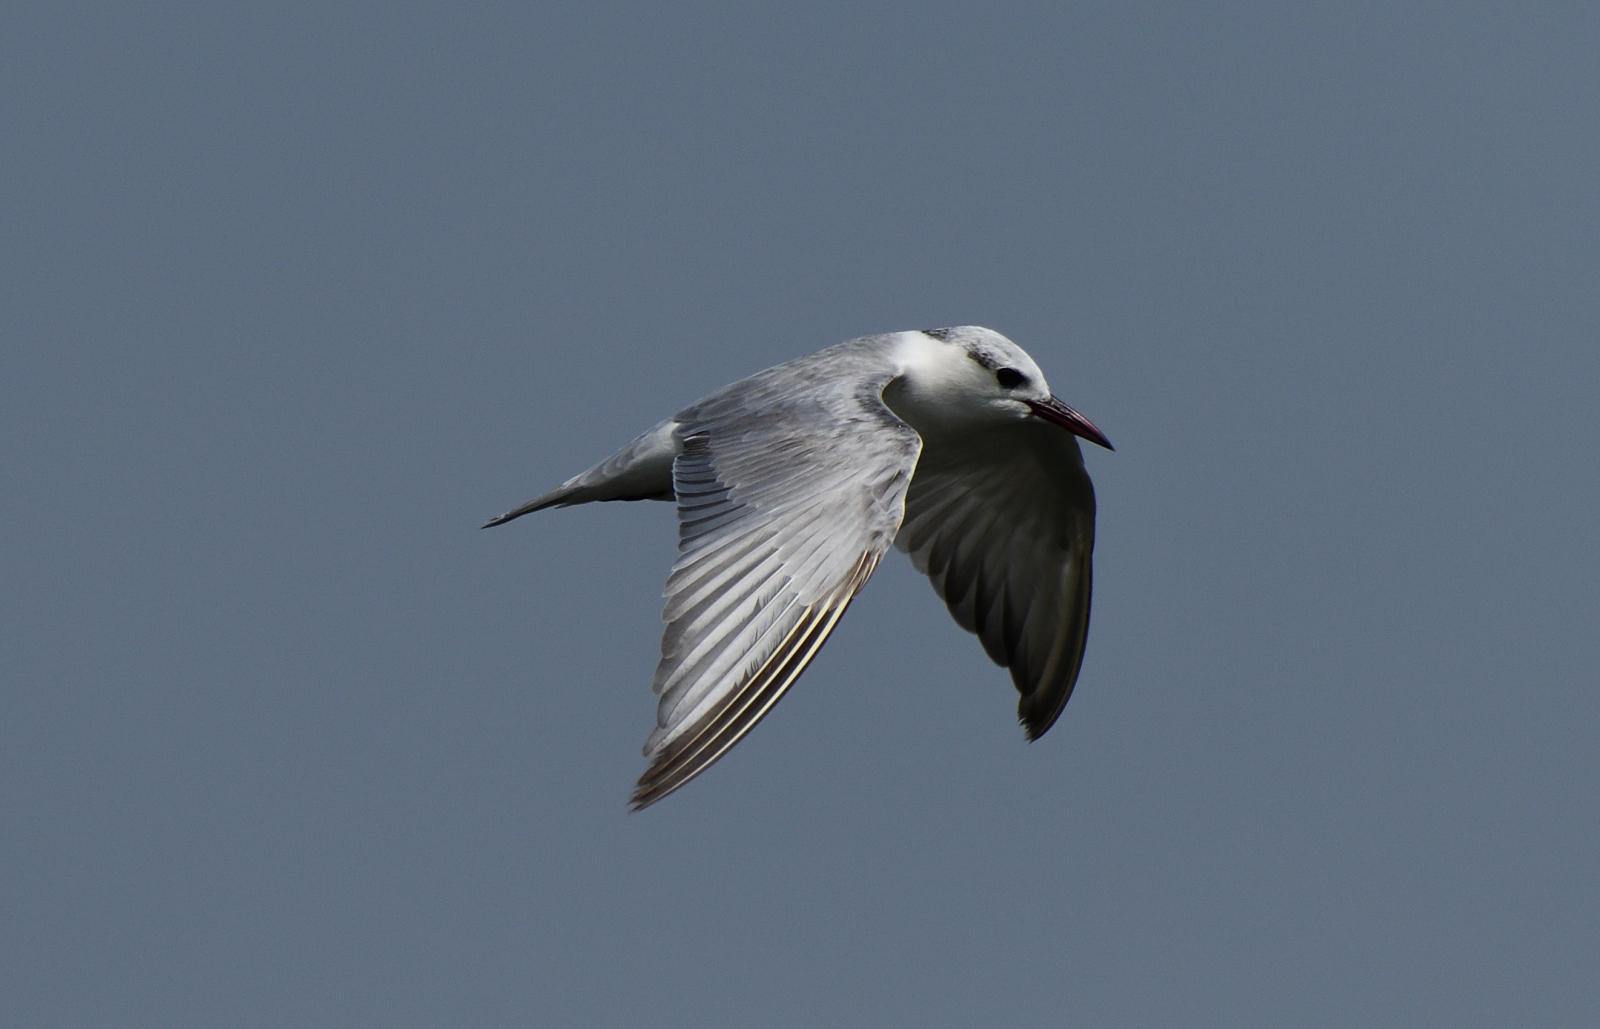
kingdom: Animalia
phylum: Chordata
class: Aves
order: Charadriiformes
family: Laridae
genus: Chlidonias
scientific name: Chlidonias hybrida
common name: Whiskered tern
